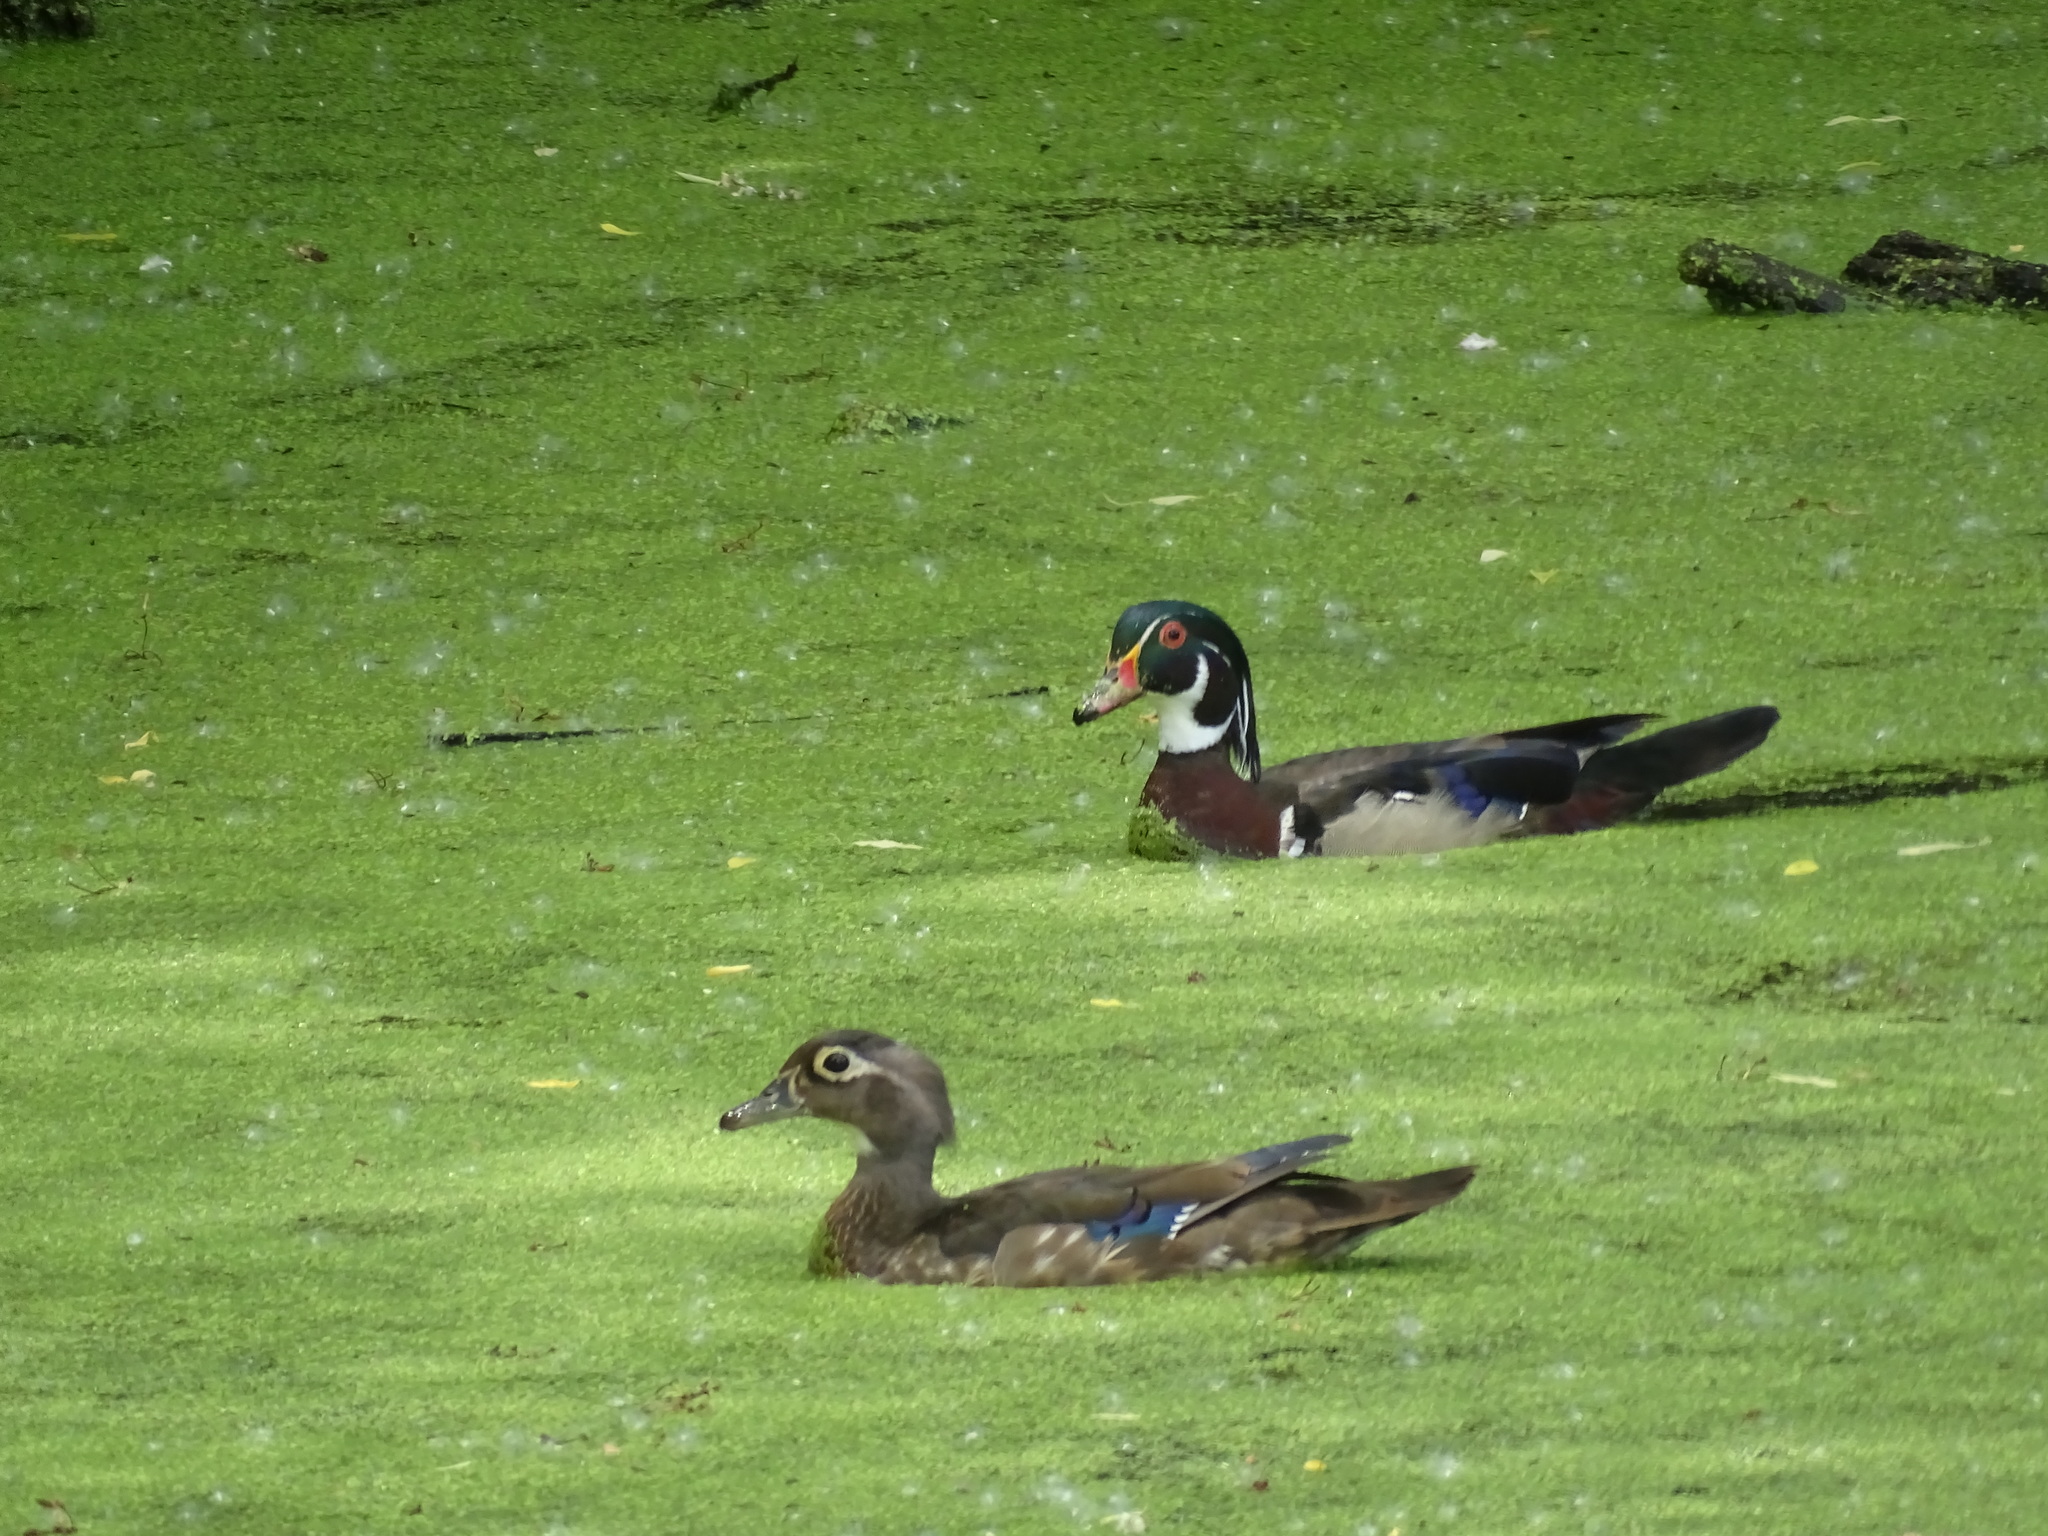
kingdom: Animalia
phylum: Chordata
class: Aves
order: Anseriformes
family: Anatidae
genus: Aix
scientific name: Aix sponsa
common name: Wood duck
